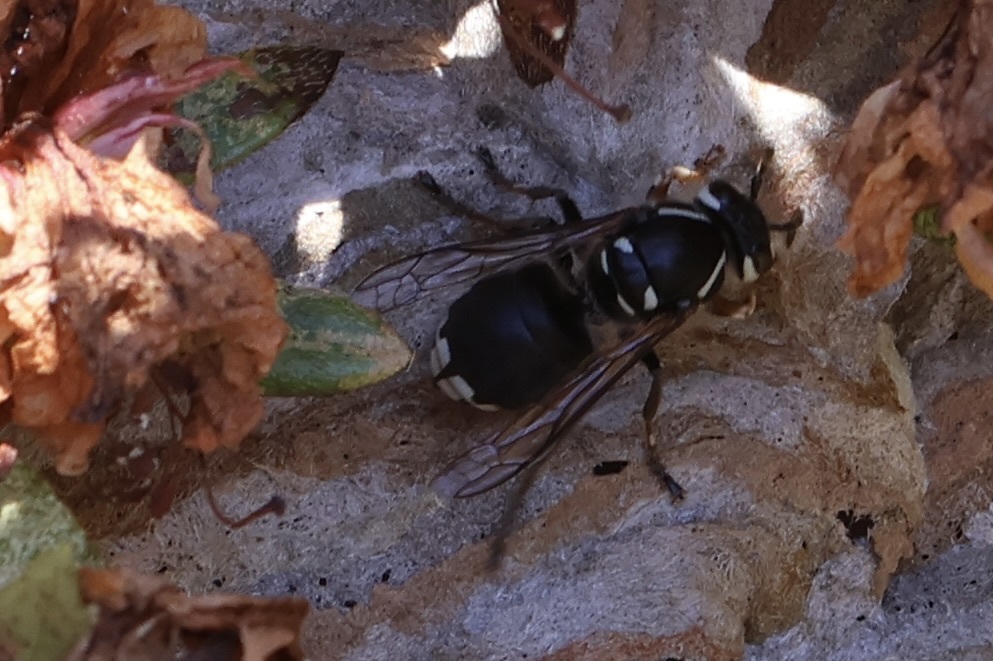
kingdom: Animalia
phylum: Arthropoda
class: Insecta
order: Hymenoptera
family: Vespidae
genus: Dolichovespula
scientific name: Dolichovespula maculata
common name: Bald-faced hornet
